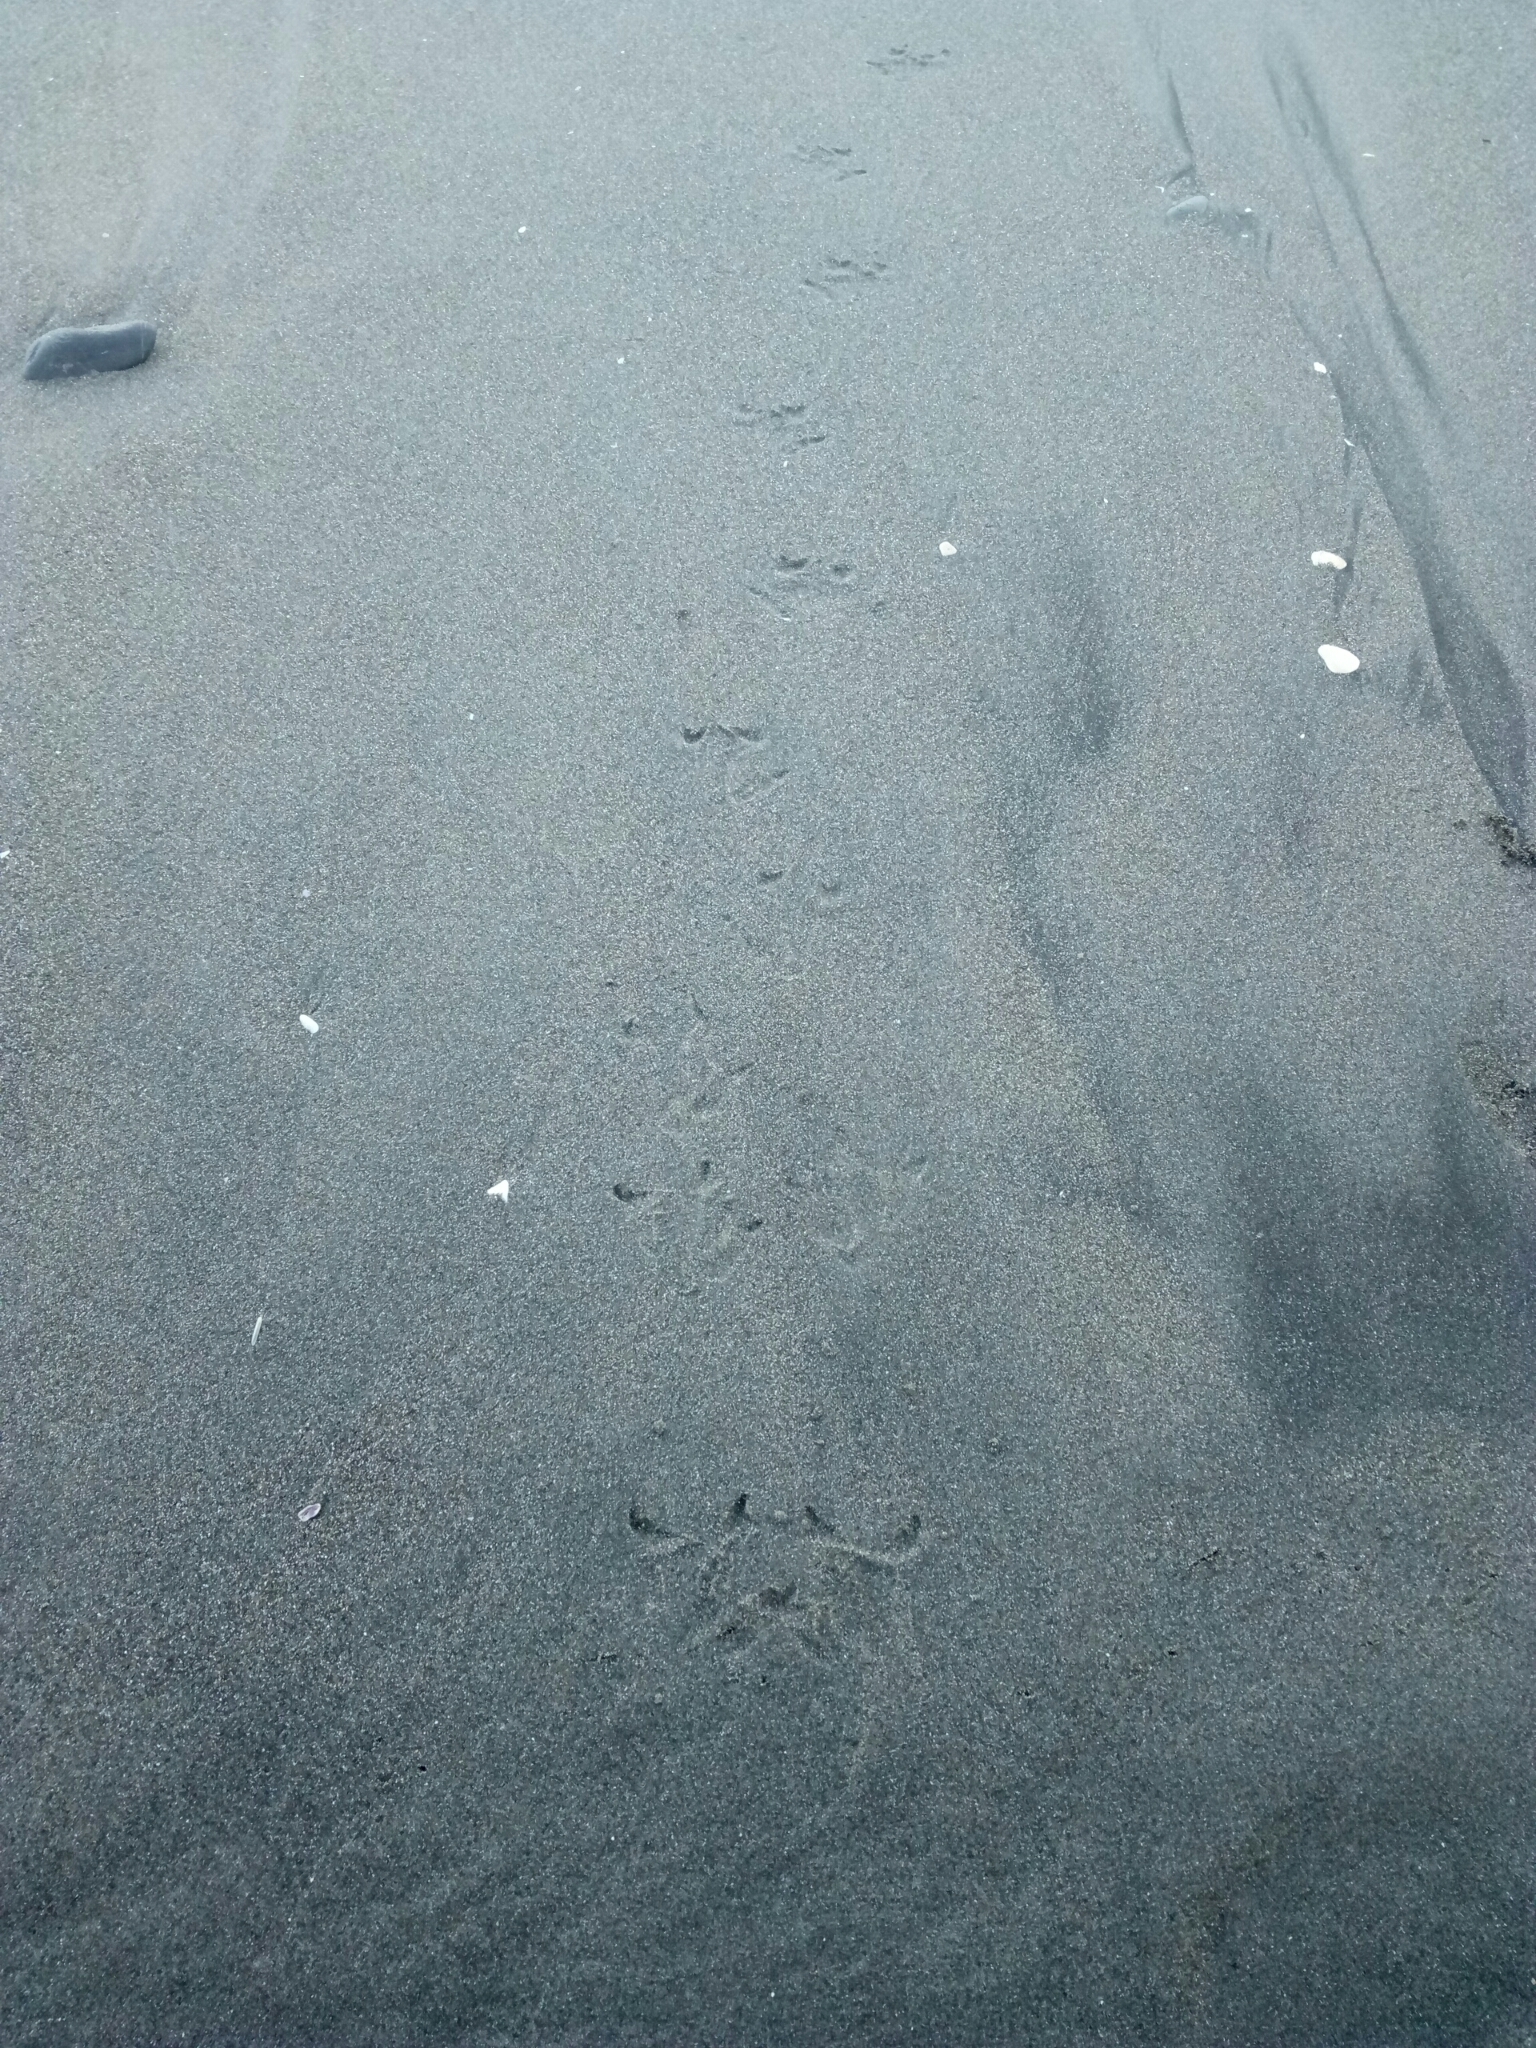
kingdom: Animalia
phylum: Chordata
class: Aves
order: Sphenisciformes
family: Spheniscidae
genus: Eudyptula
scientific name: Eudyptula minor
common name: Little penguin
